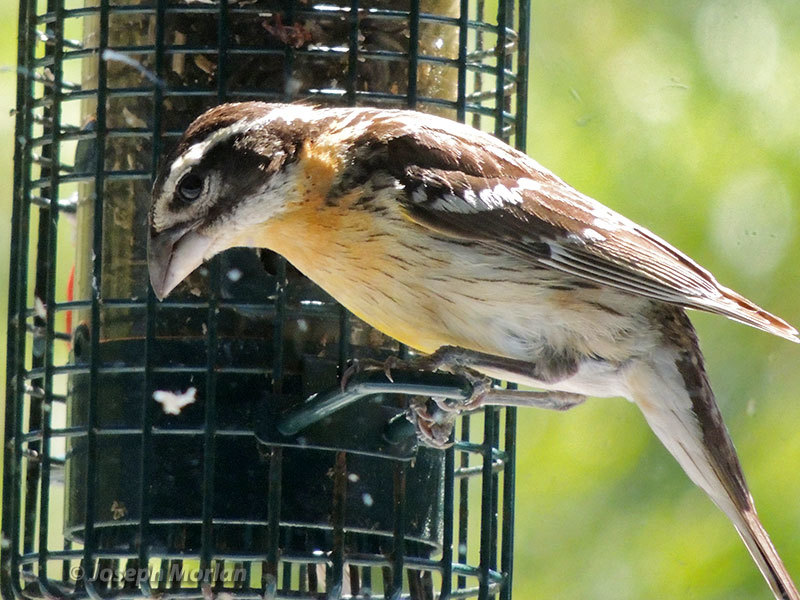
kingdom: Animalia
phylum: Chordata
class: Aves
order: Passeriformes
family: Cardinalidae
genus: Pheucticus
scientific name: Pheucticus melanocephalus
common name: Black-headed grosbeak
